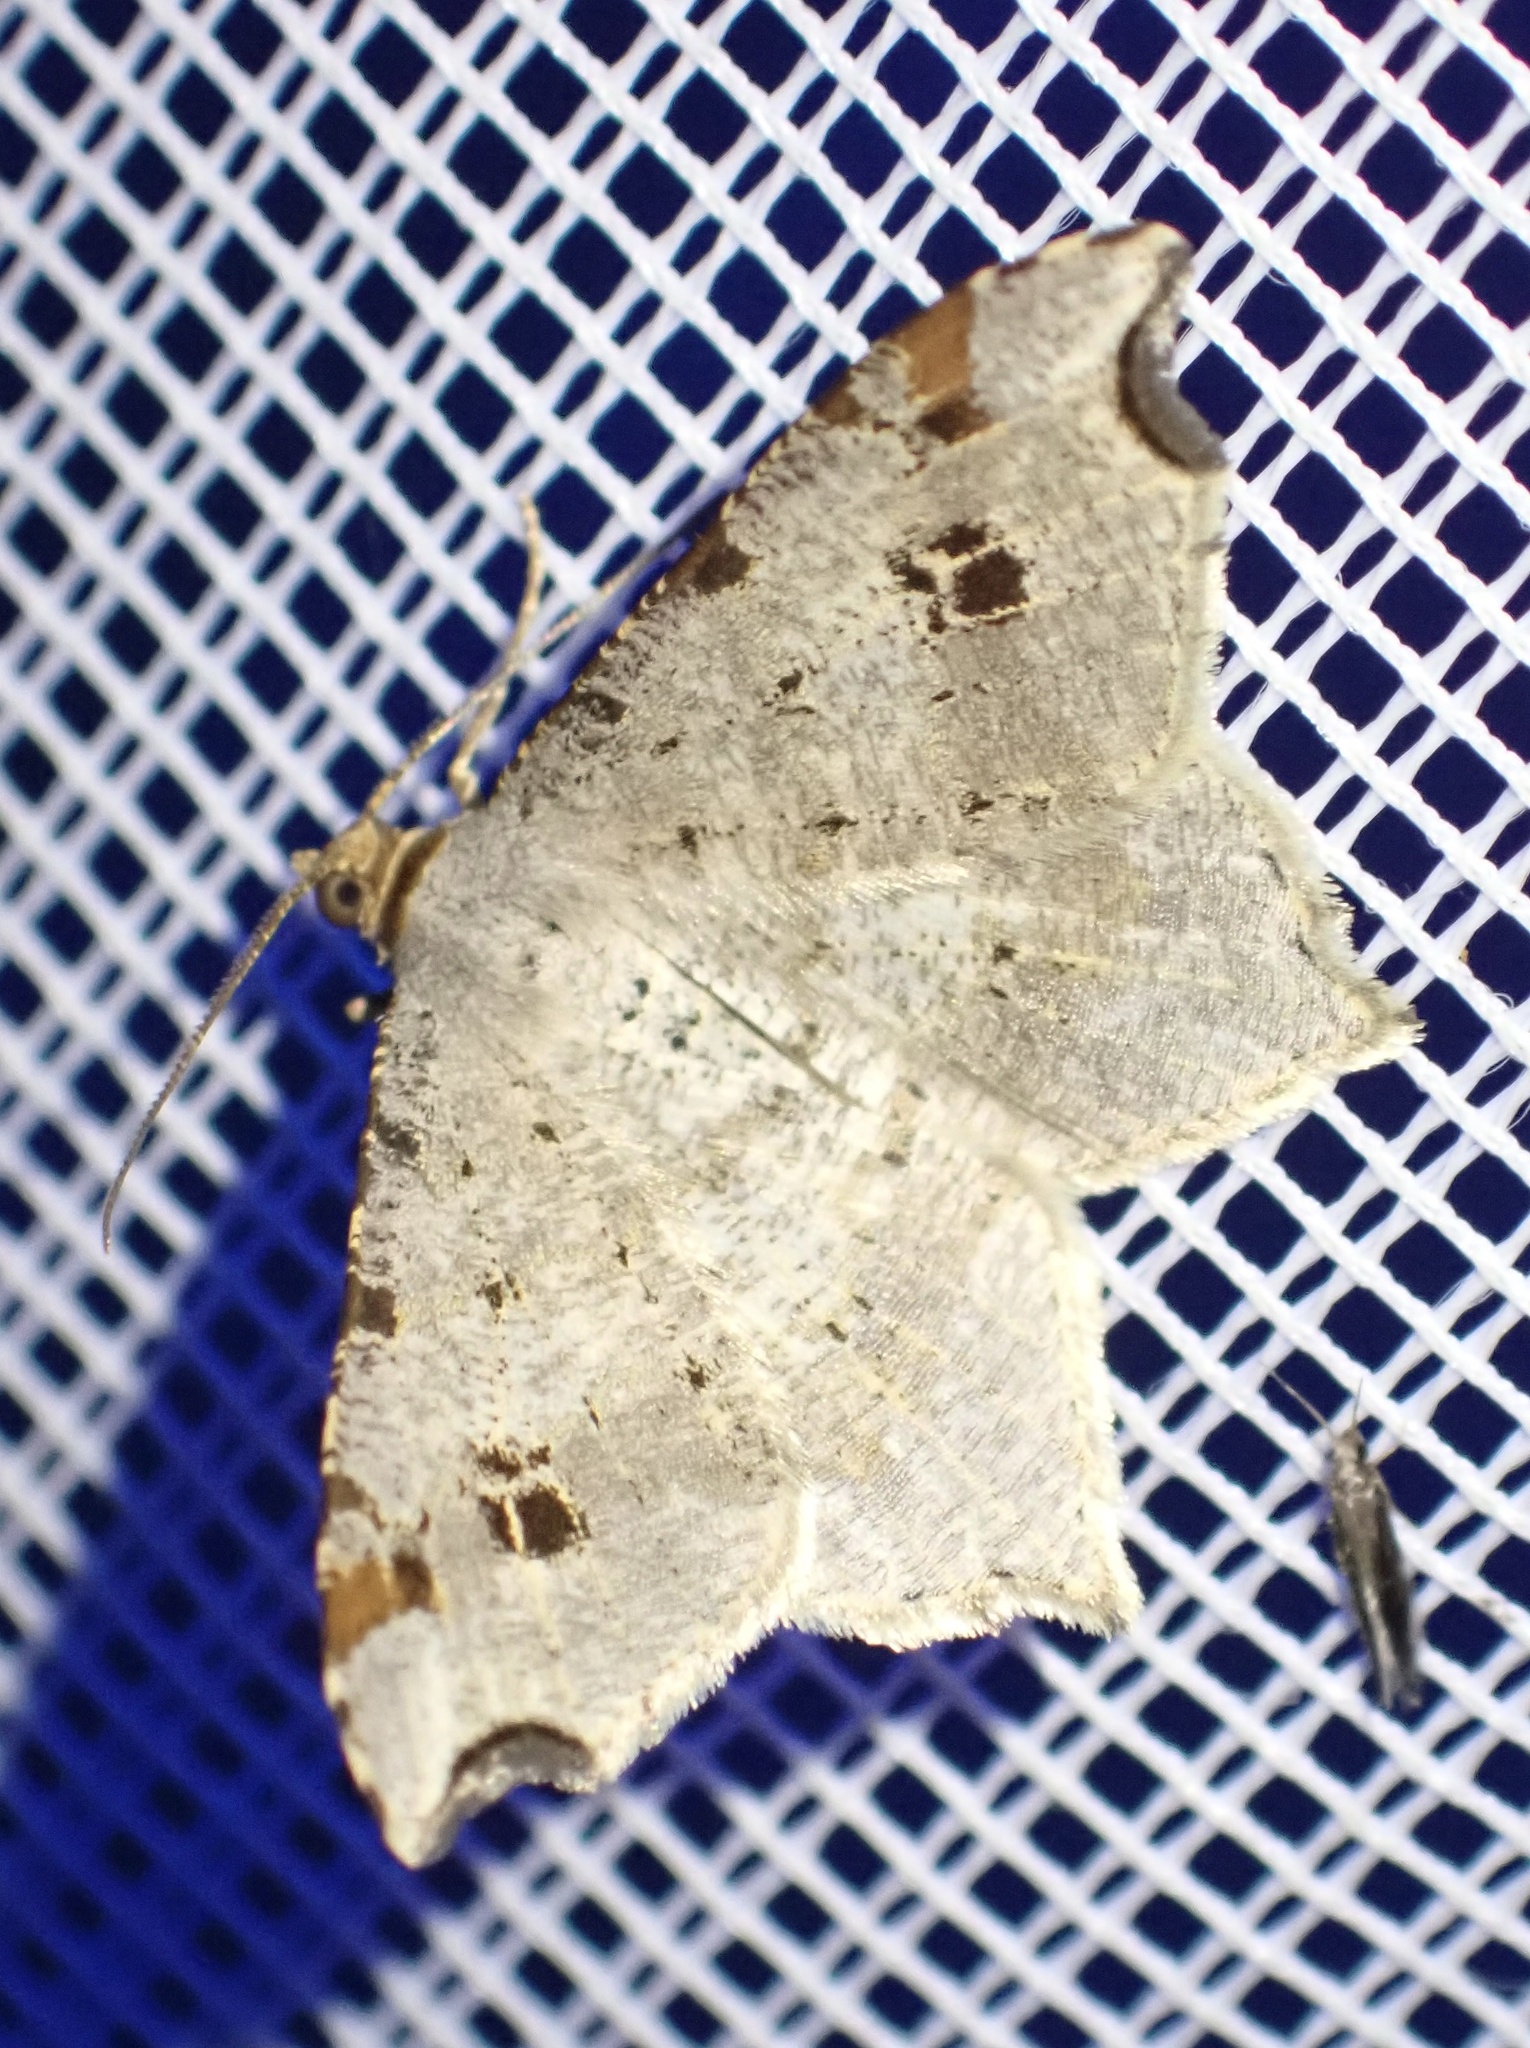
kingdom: Animalia
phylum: Arthropoda
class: Insecta
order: Lepidoptera
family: Geometridae
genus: Macaria
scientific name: Macaria alternata
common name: Sharp-angled peacock
